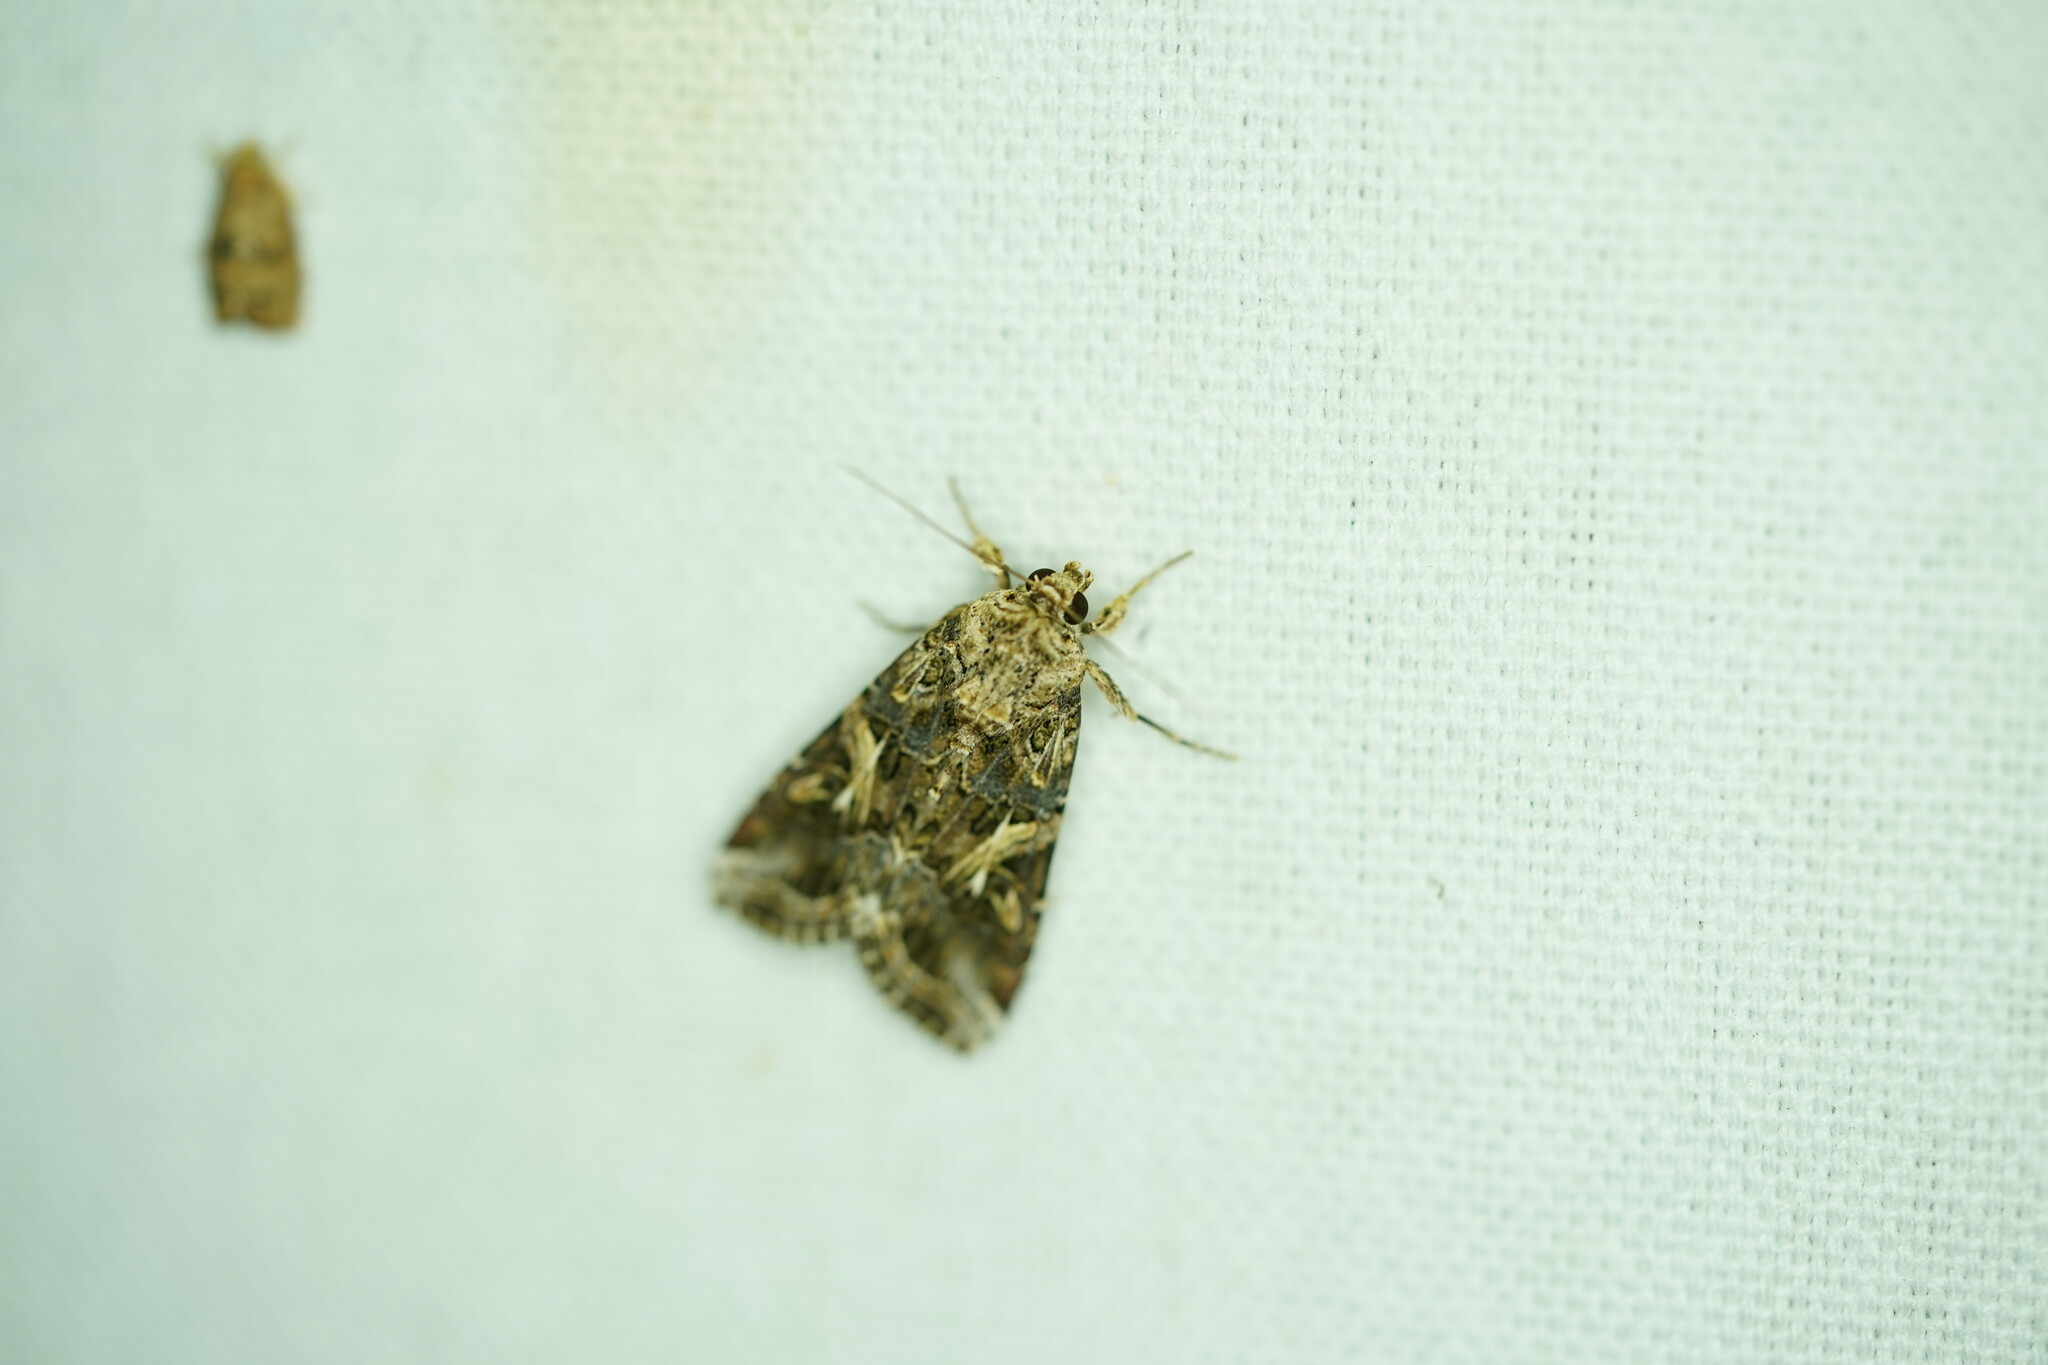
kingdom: Animalia
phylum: Arthropoda
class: Insecta
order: Lepidoptera
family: Noctuidae
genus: Spodoptera
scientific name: Spodoptera ornithogalli
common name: Yellow-striped armyworm
